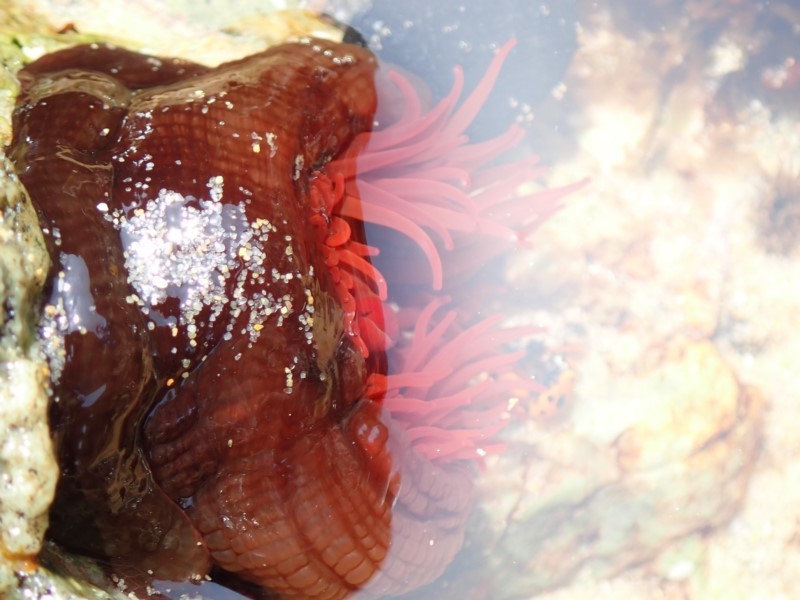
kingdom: Animalia
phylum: Cnidaria
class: Anthozoa
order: Actiniaria
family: Actiniidae
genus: Actinia
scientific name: Actinia tenebrosa
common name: Waratah anemone
